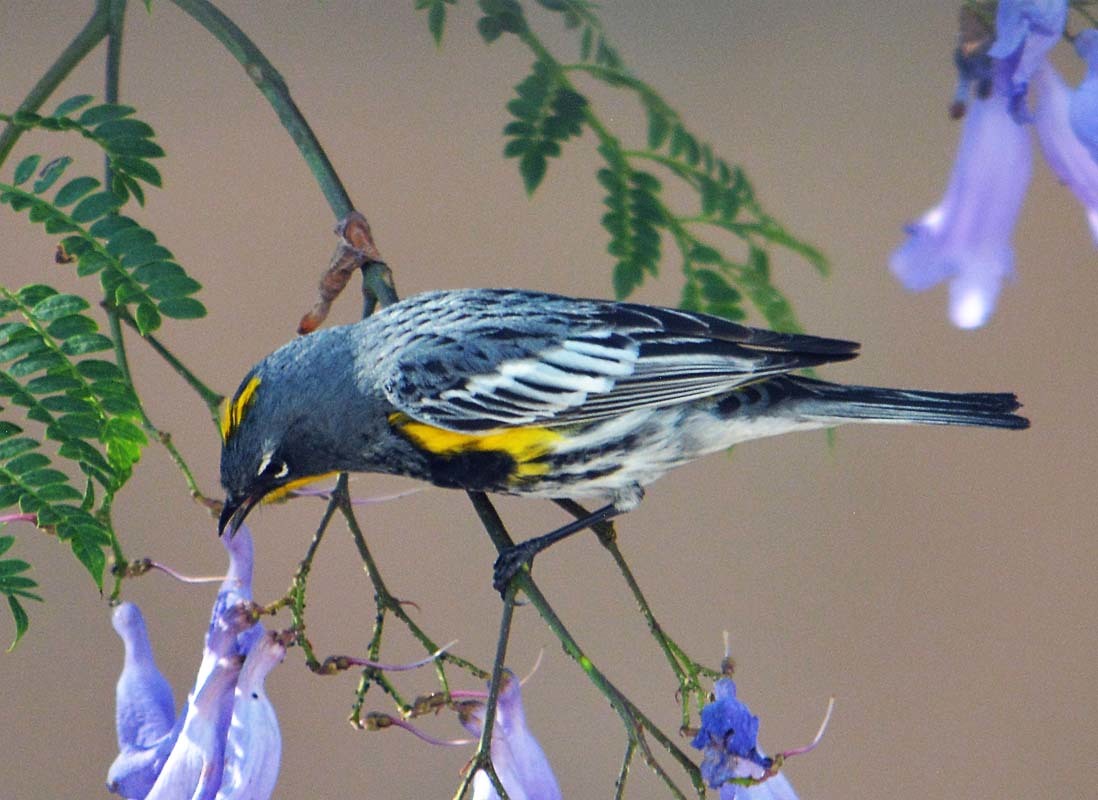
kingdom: Animalia
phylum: Chordata
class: Aves
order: Passeriformes
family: Parulidae
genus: Setophaga
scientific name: Setophaga auduboni
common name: Audubon's warbler
